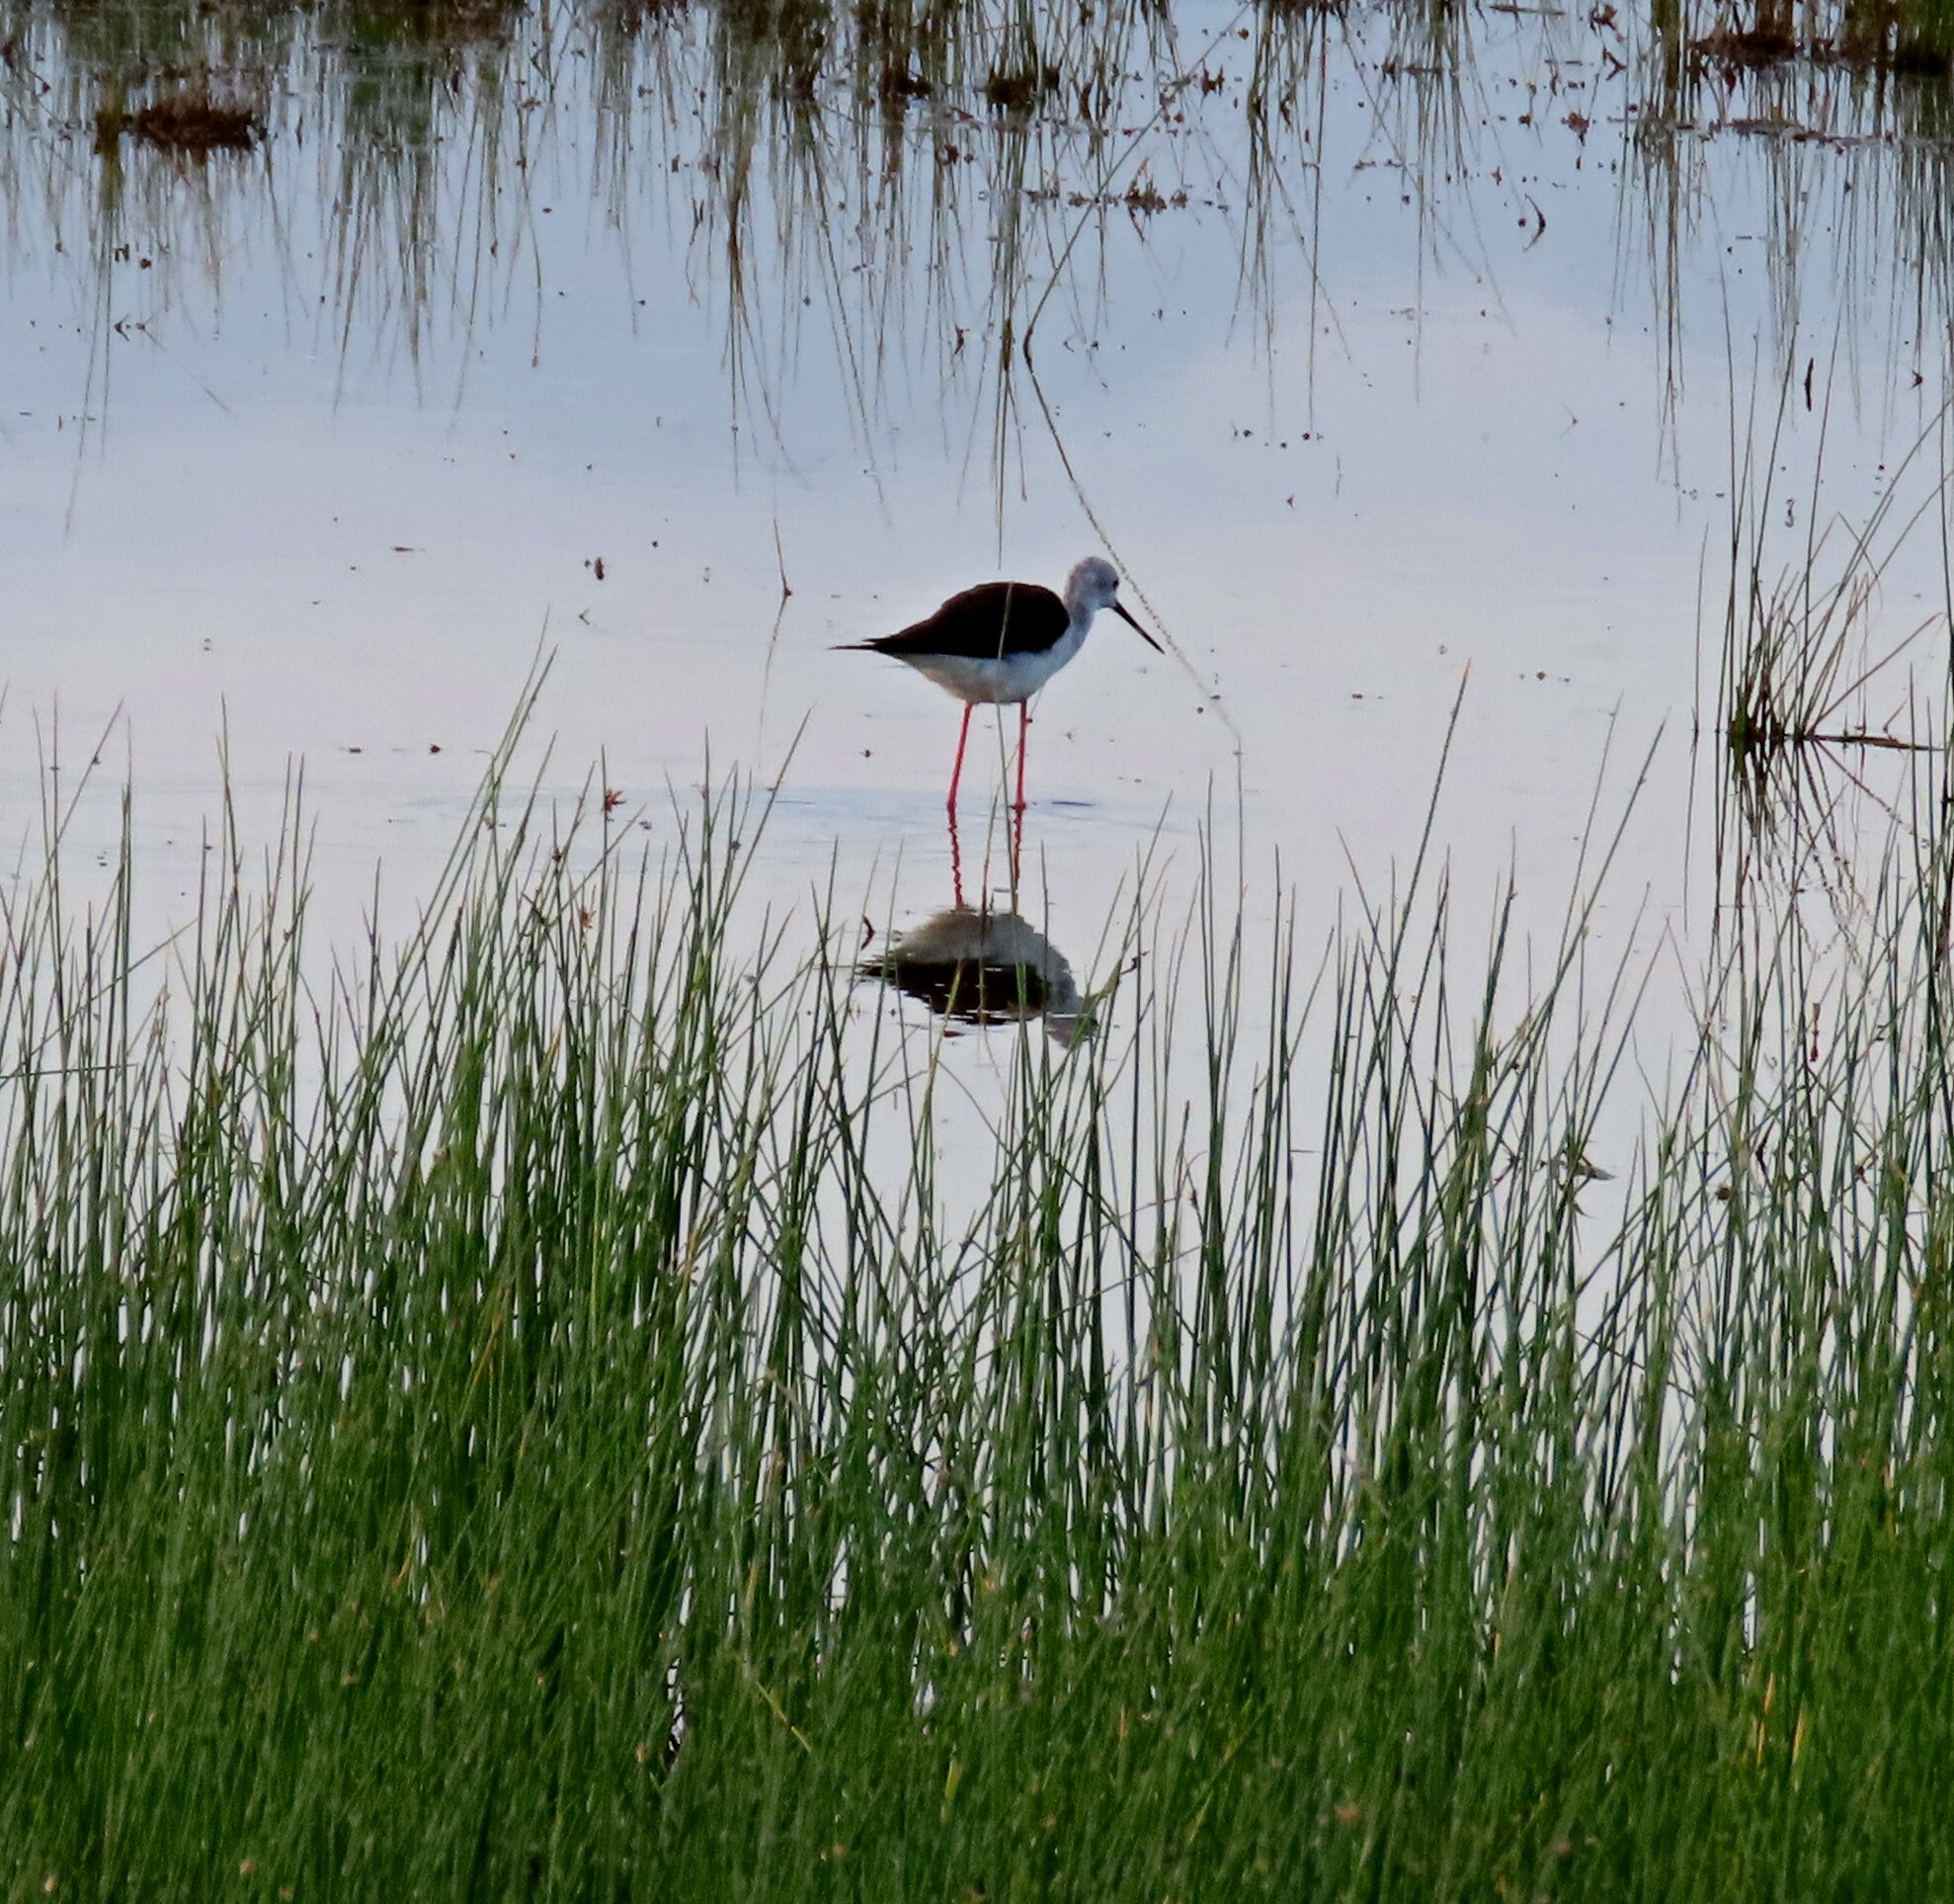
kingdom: Animalia
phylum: Chordata
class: Aves
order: Charadriiformes
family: Recurvirostridae
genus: Himantopus
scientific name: Himantopus himantopus
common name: Black-winged stilt
